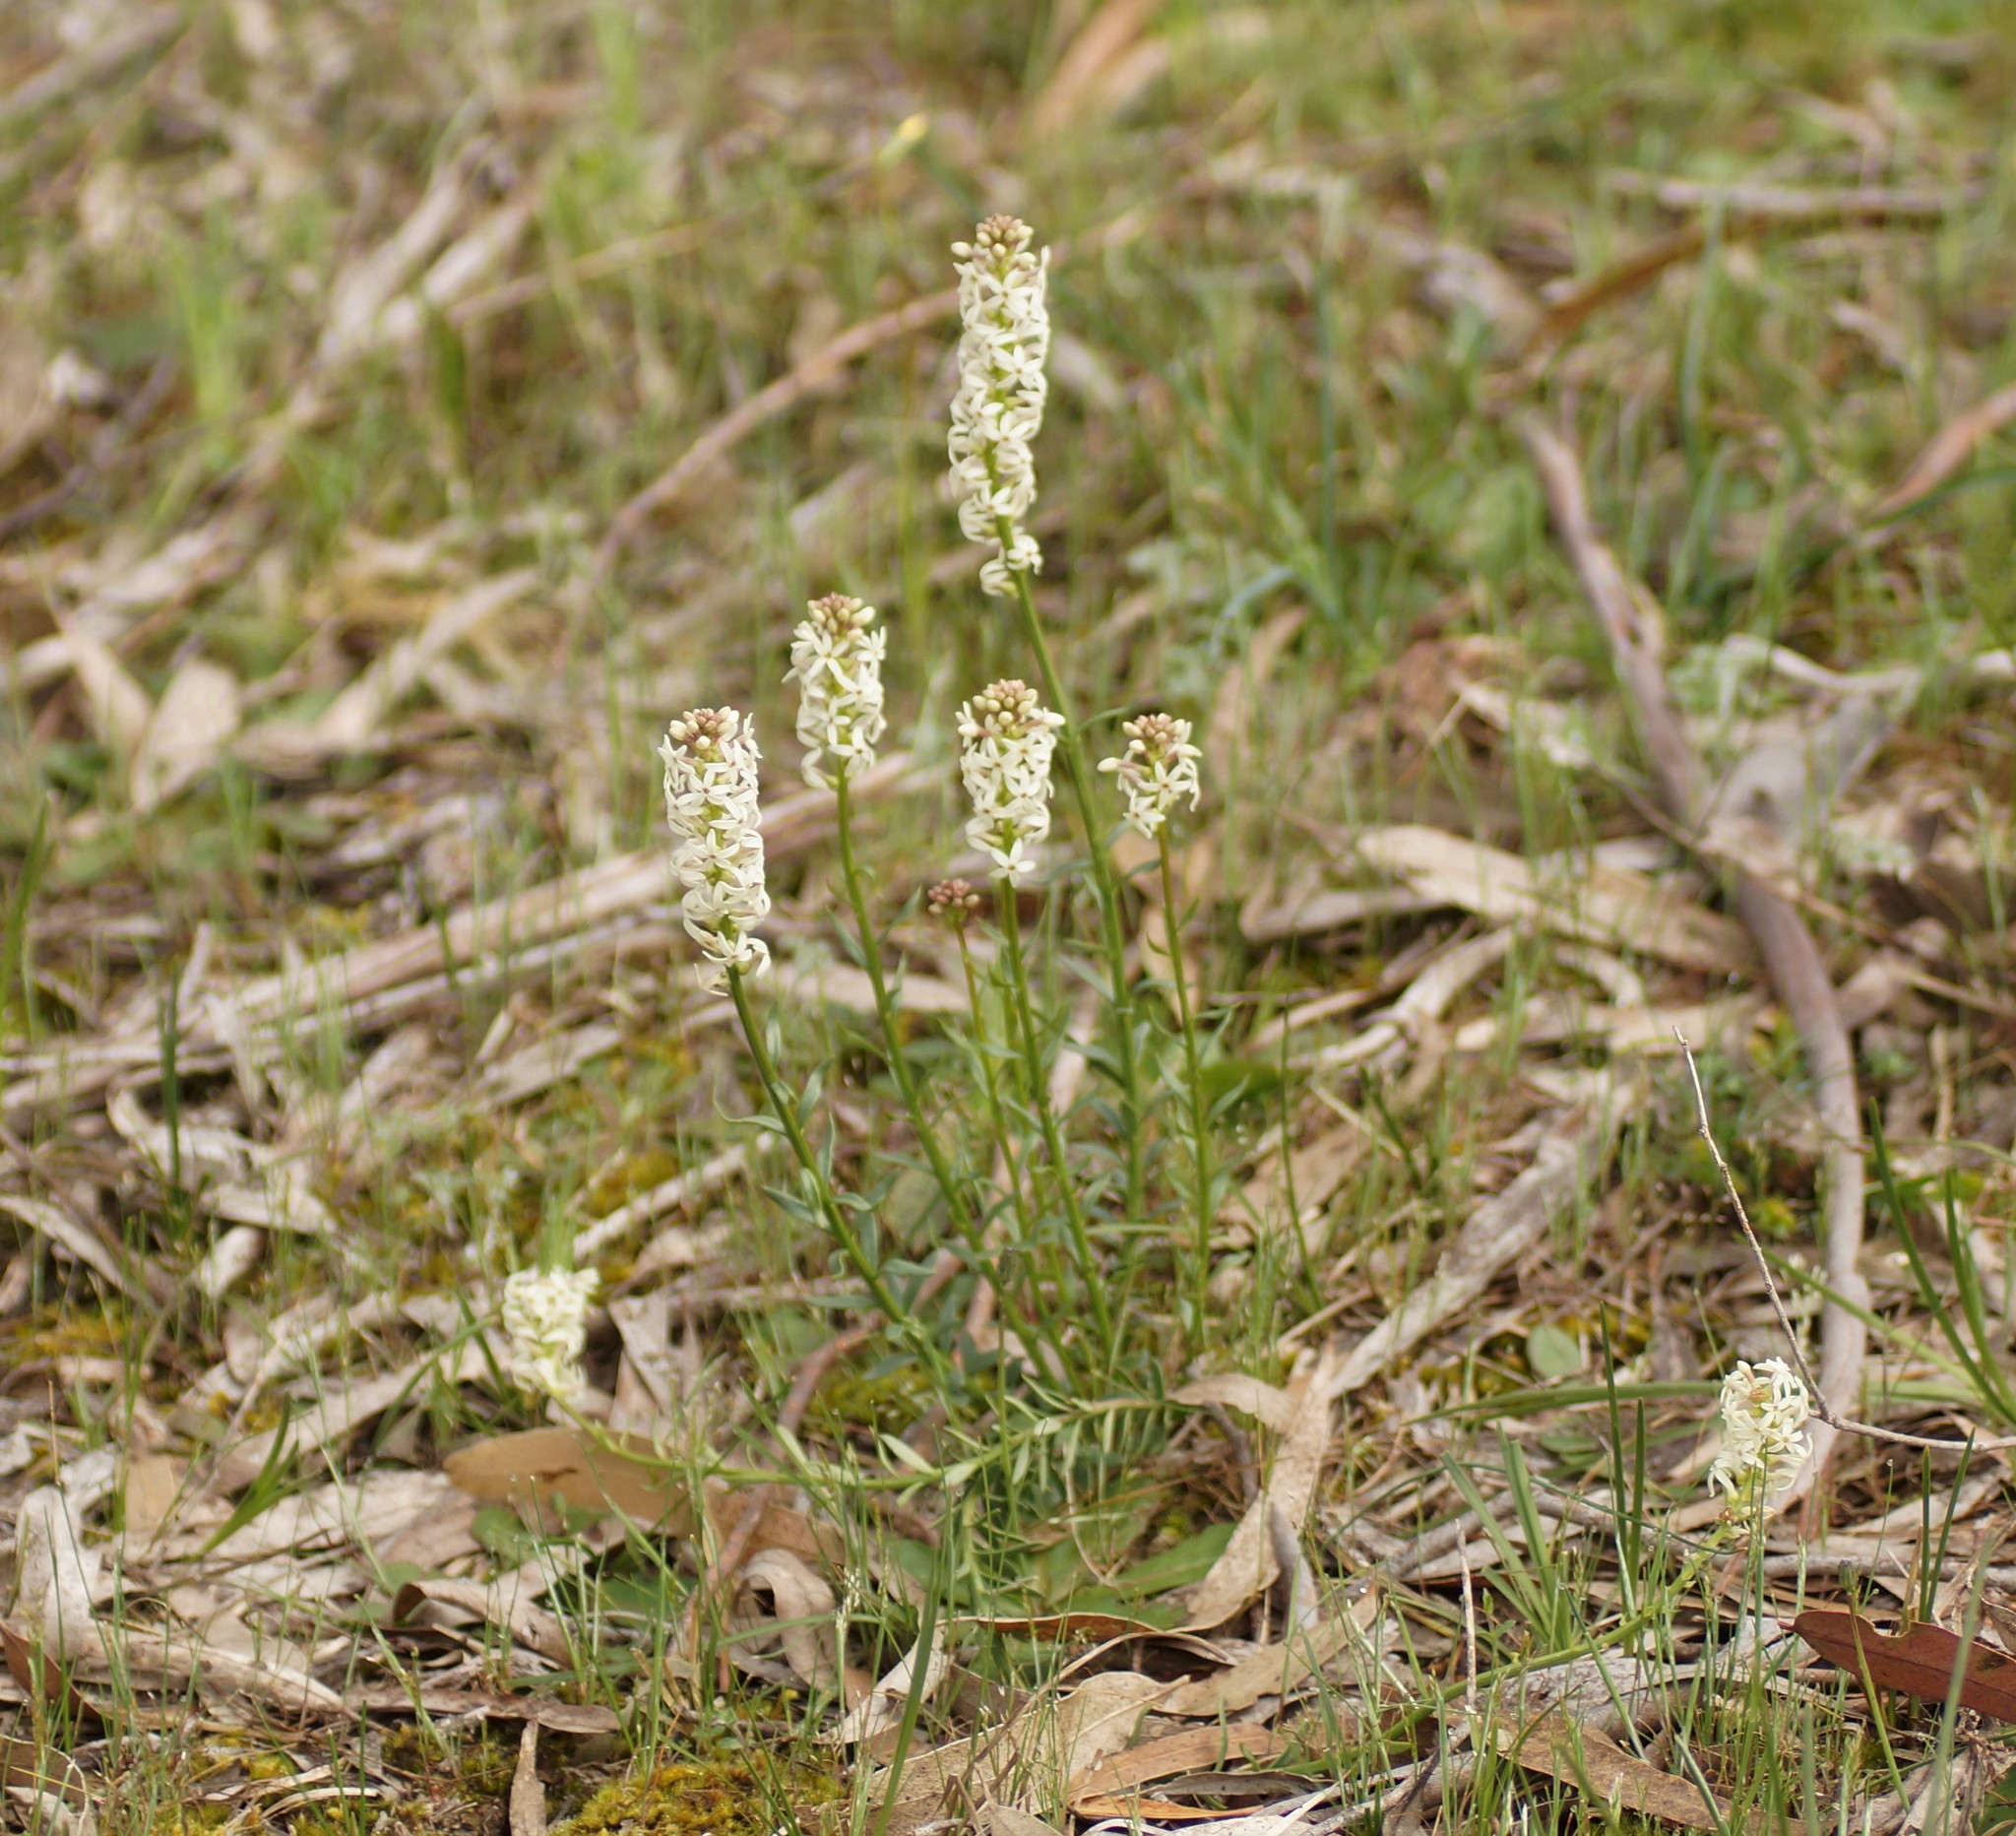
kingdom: Plantae
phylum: Tracheophyta
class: Magnoliopsida
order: Celastrales
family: Celastraceae
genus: Stackhousia
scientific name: Stackhousia monogyna
